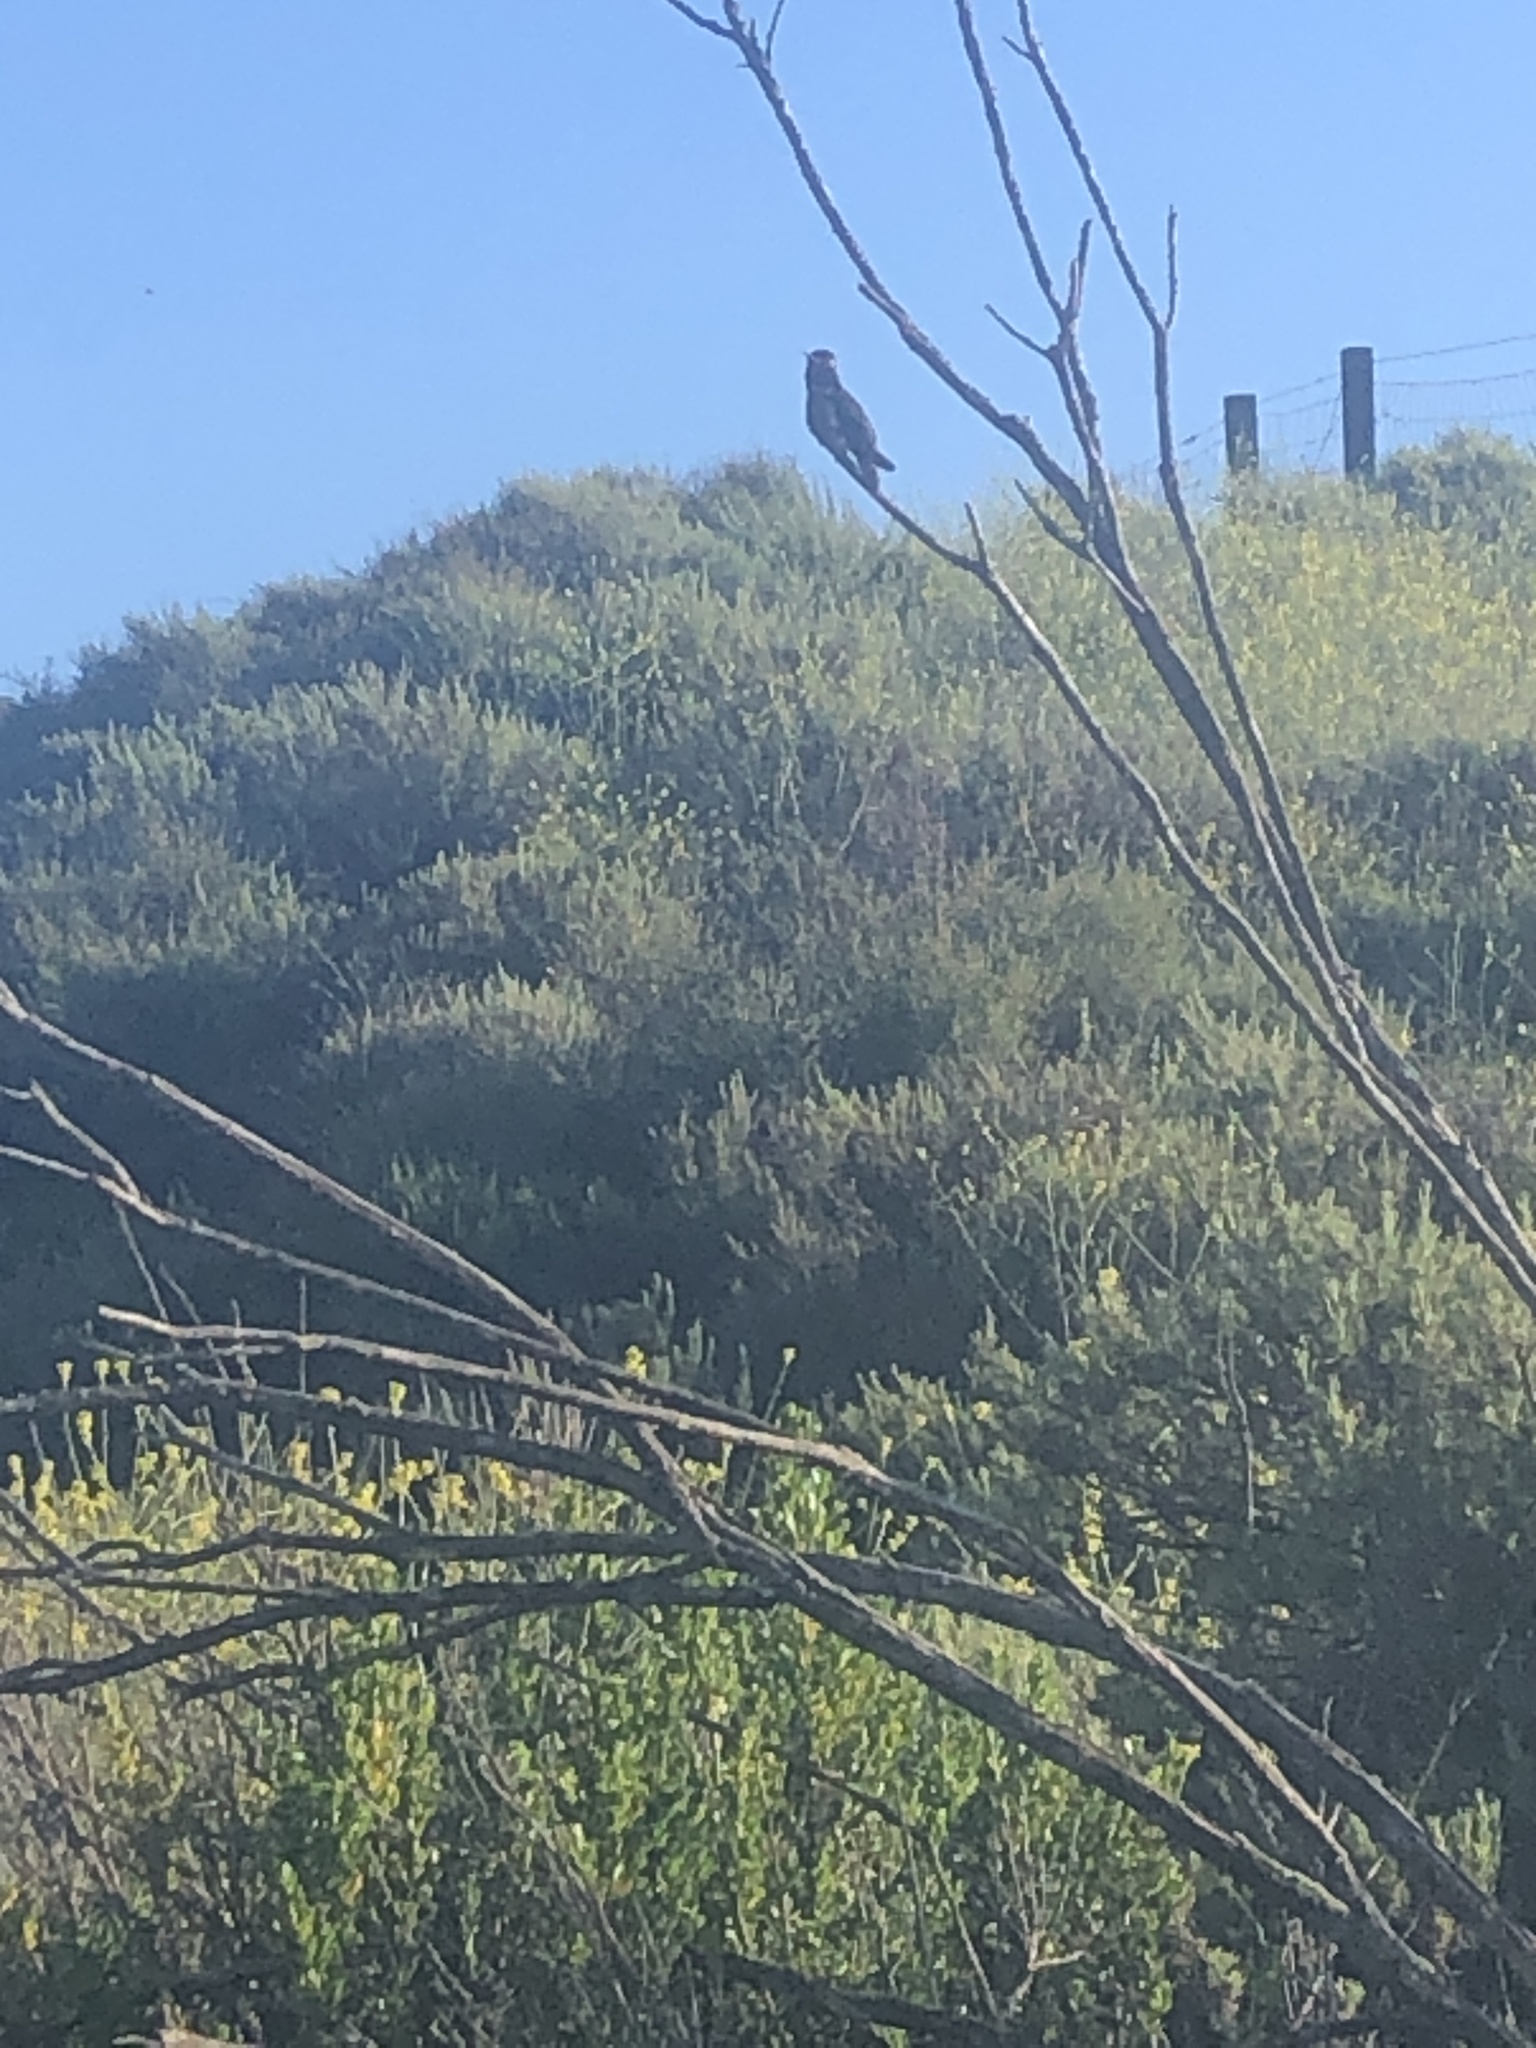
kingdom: Animalia
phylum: Chordata
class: Aves
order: Apodiformes
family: Trochilidae
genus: Calypte
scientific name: Calypte anna
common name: Anna's hummingbird
